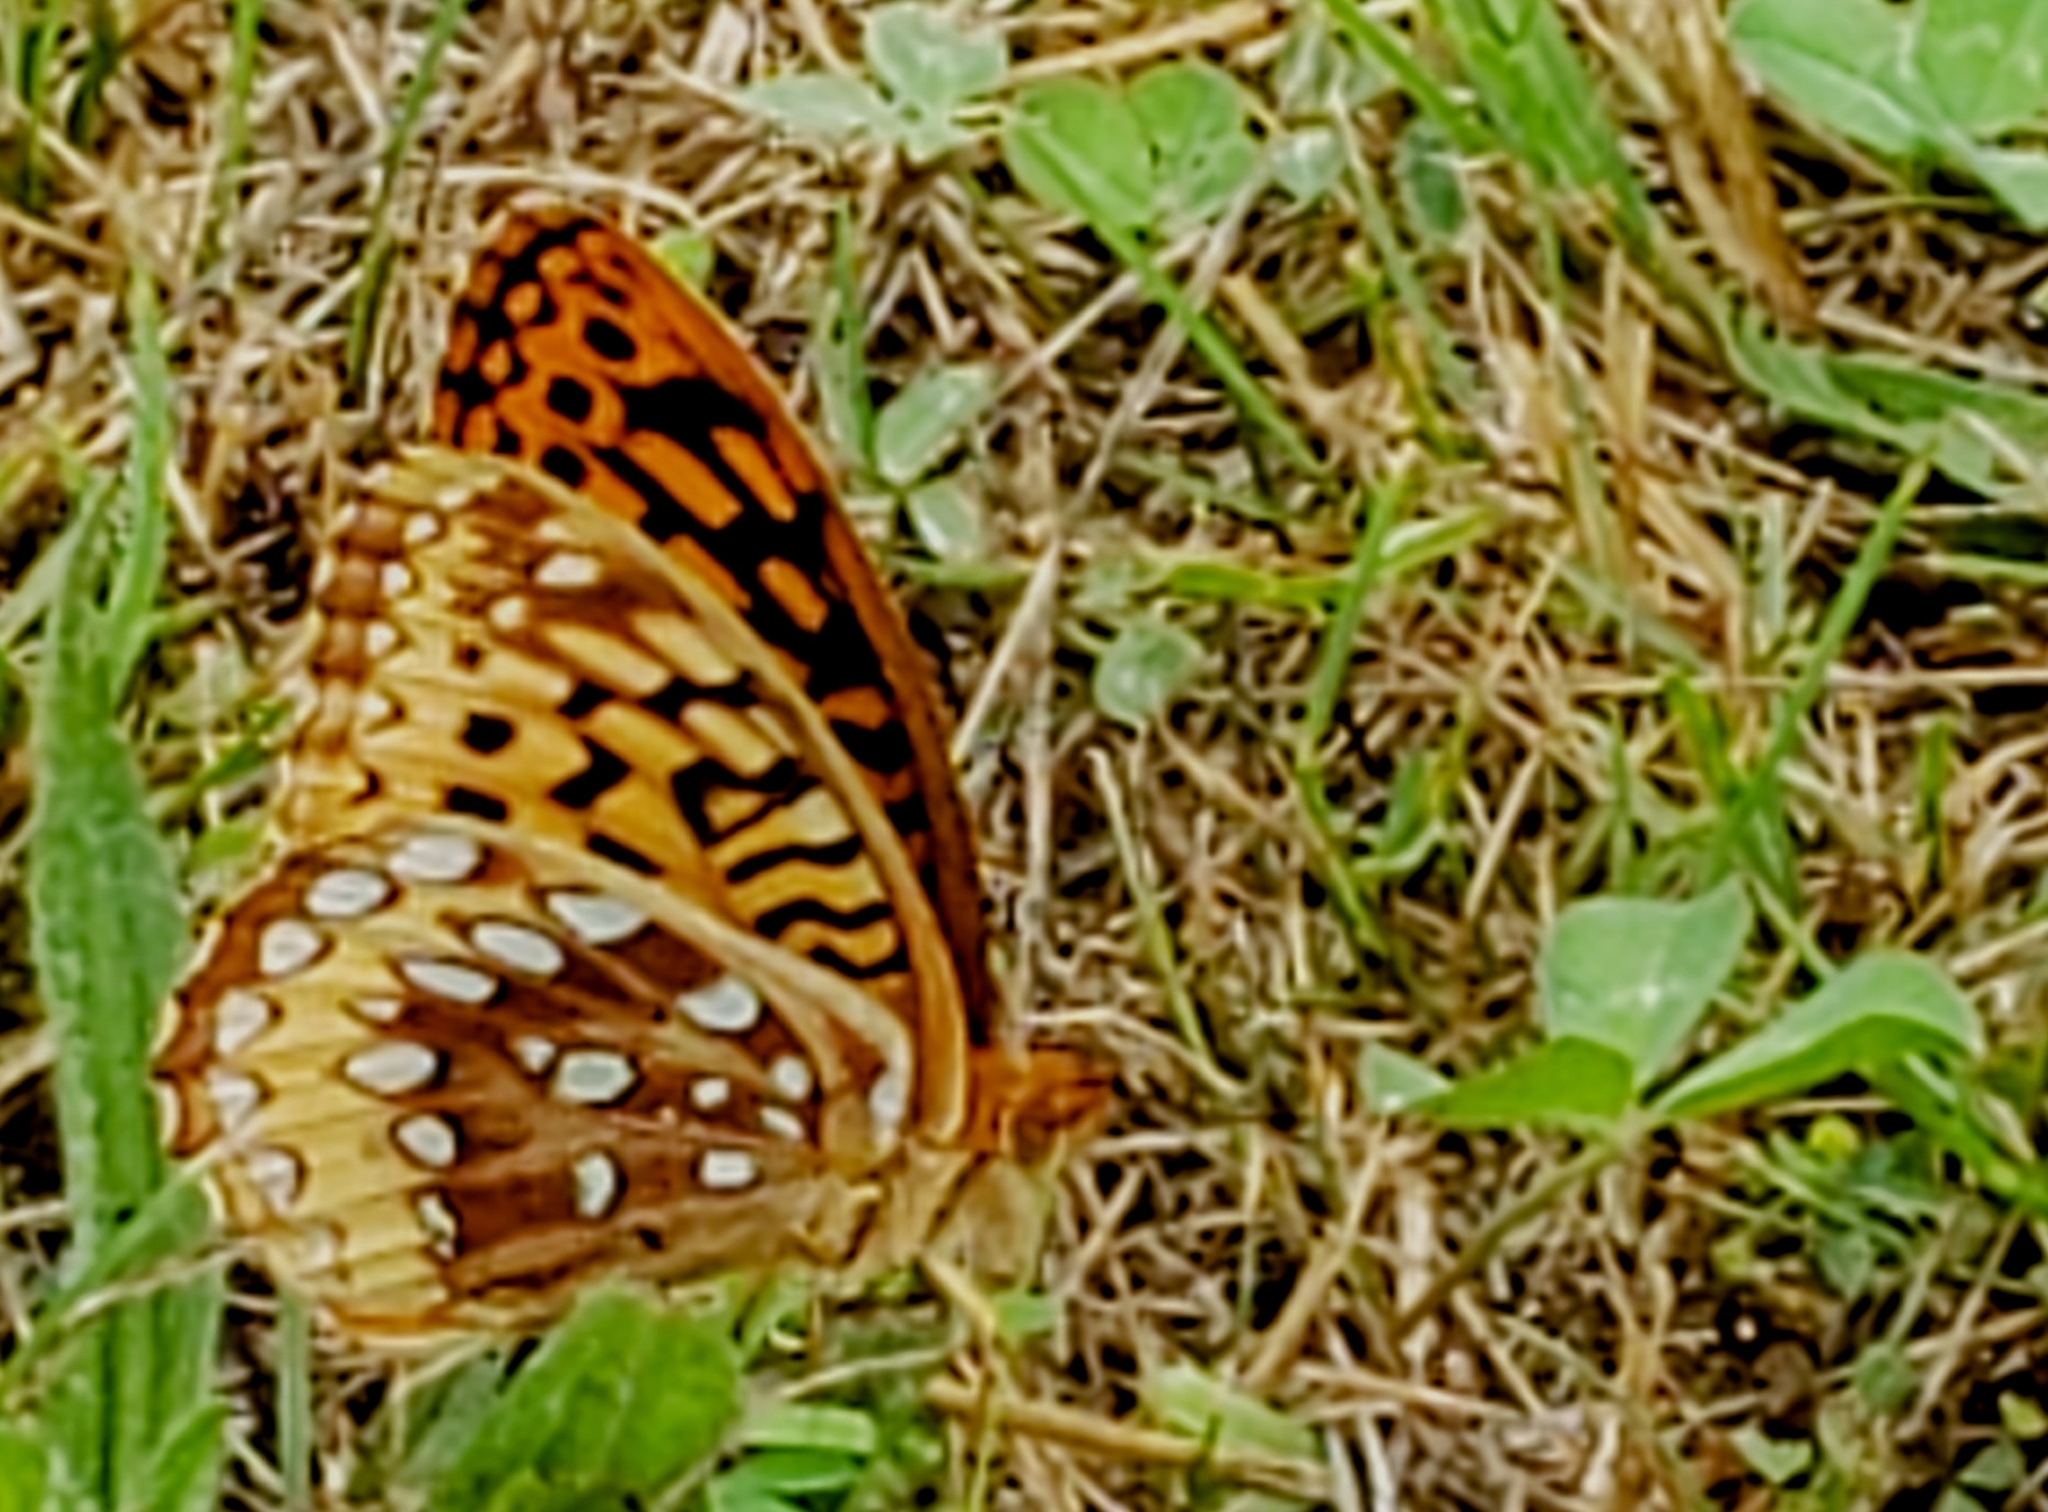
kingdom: Animalia
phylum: Arthropoda
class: Insecta
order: Lepidoptera
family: Nymphalidae
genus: Speyeria
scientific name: Speyeria cybele
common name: Great spangled fritillary
